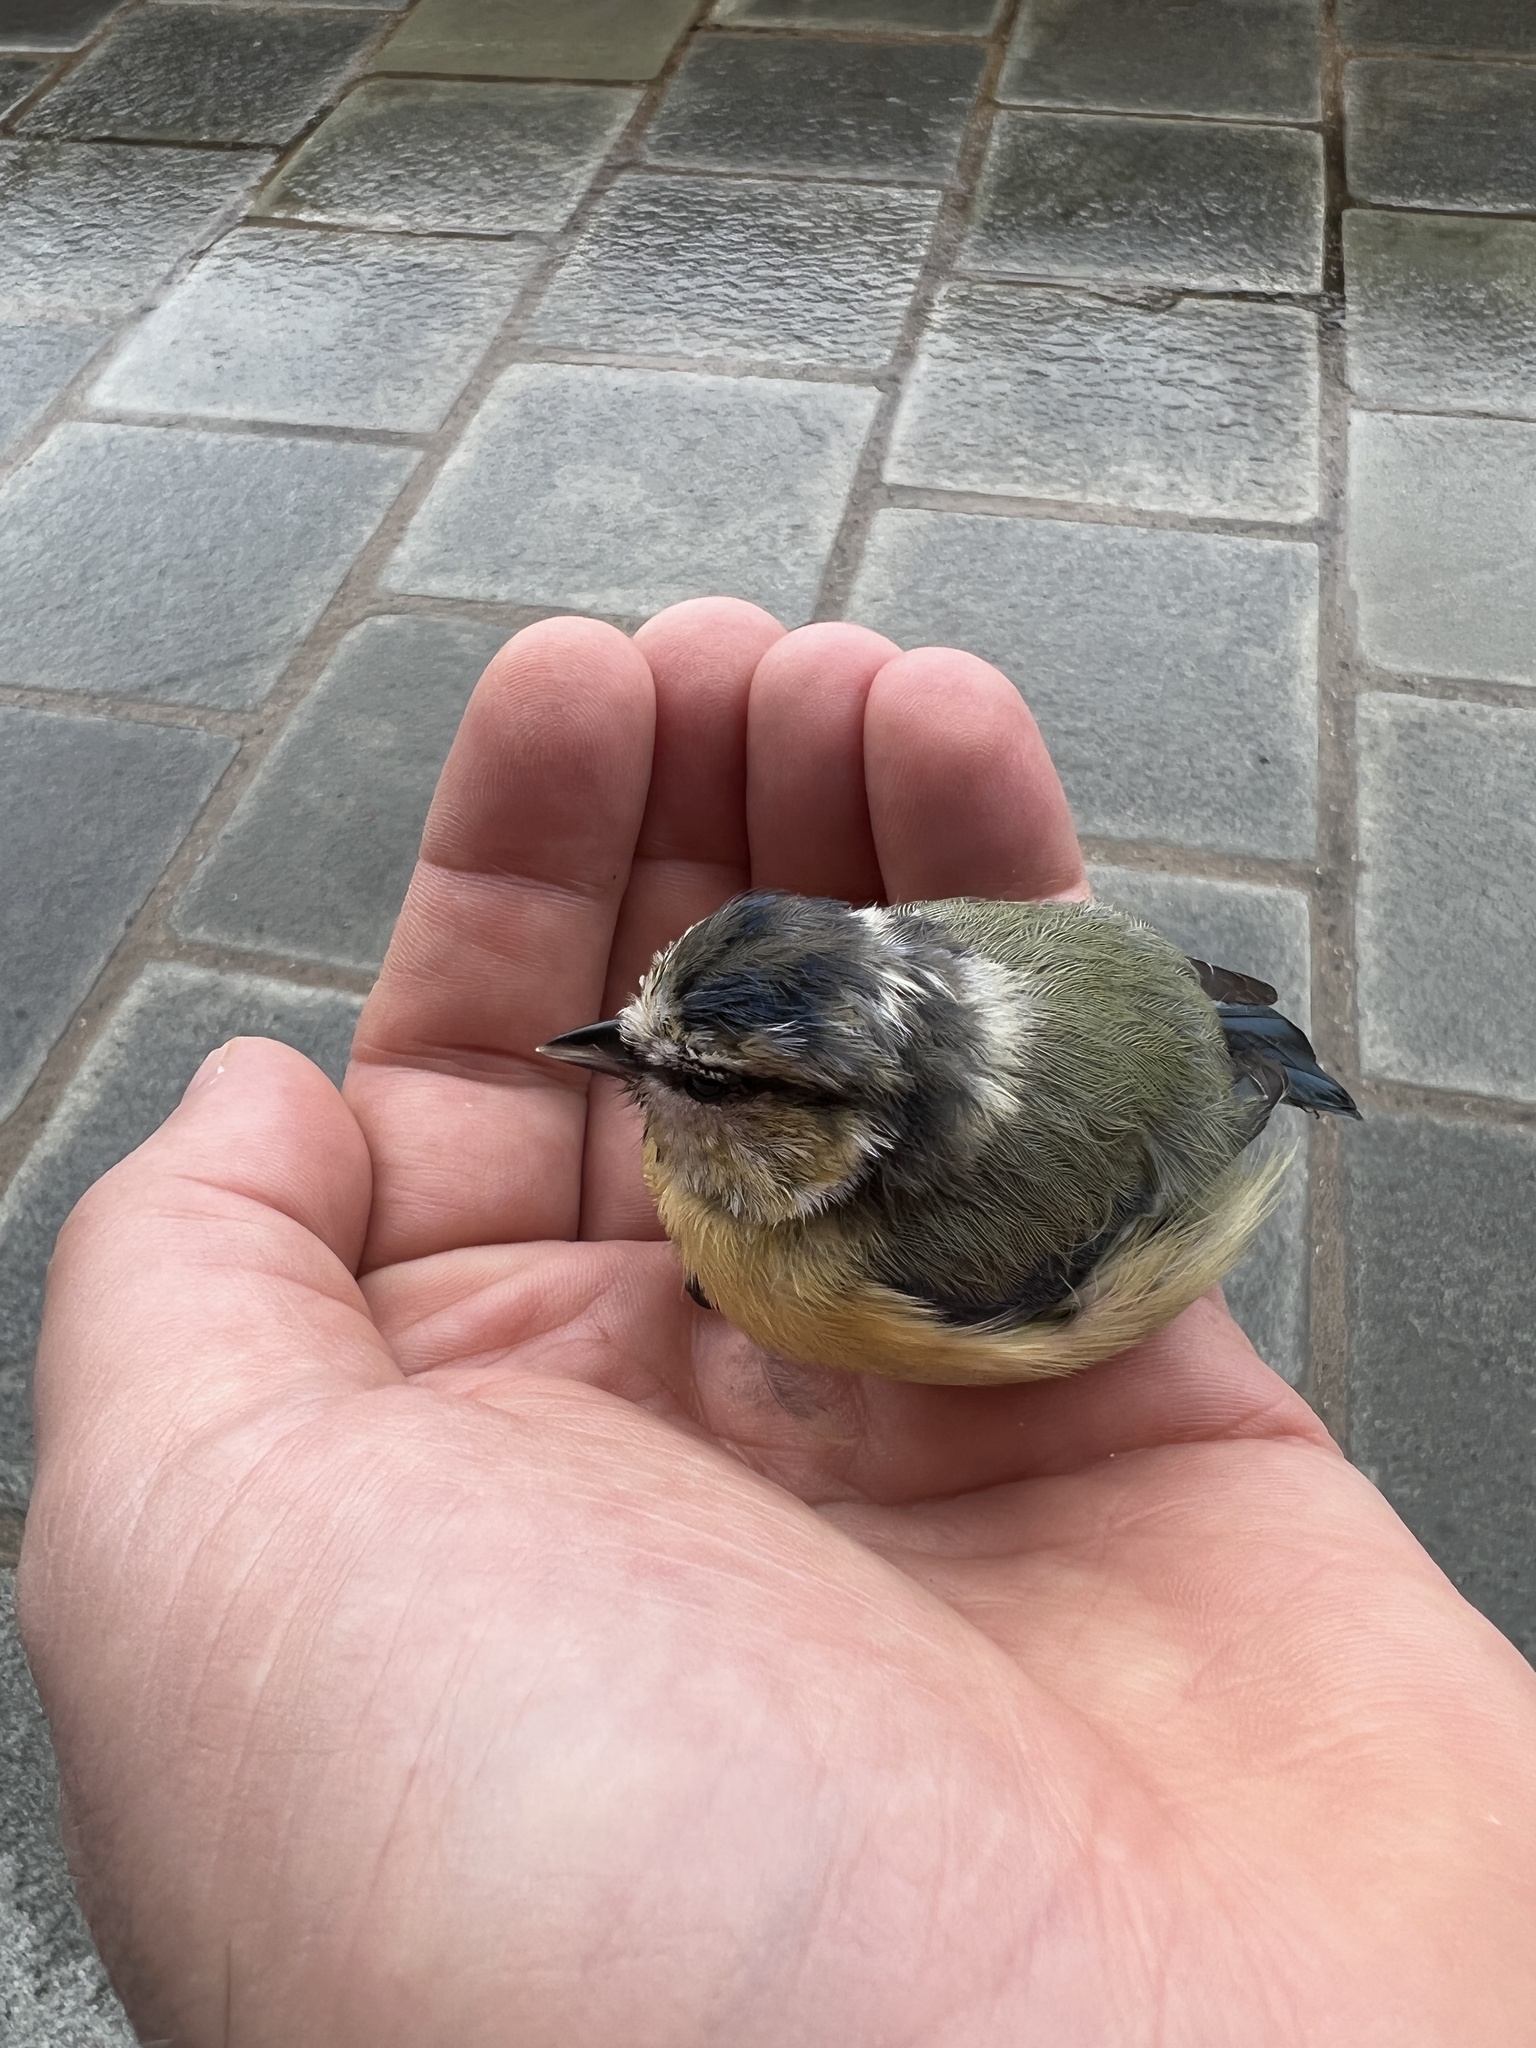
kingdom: Animalia
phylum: Chordata
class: Aves
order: Passeriformes
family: Paridae
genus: Cyanistes
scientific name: Cyanistes caeruleus
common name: Eurasian blue tit
